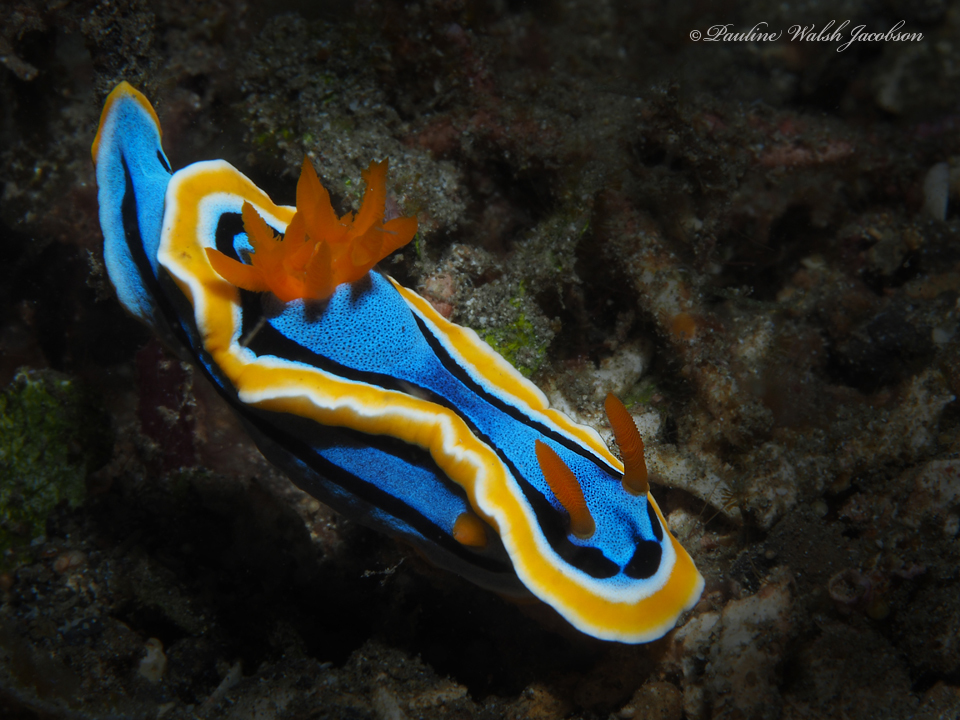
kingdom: Animalia
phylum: Mollusca
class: Gastropoda
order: Nudibranchia
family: Chromodorididae
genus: Chromodoris
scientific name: Chromodoris annae
